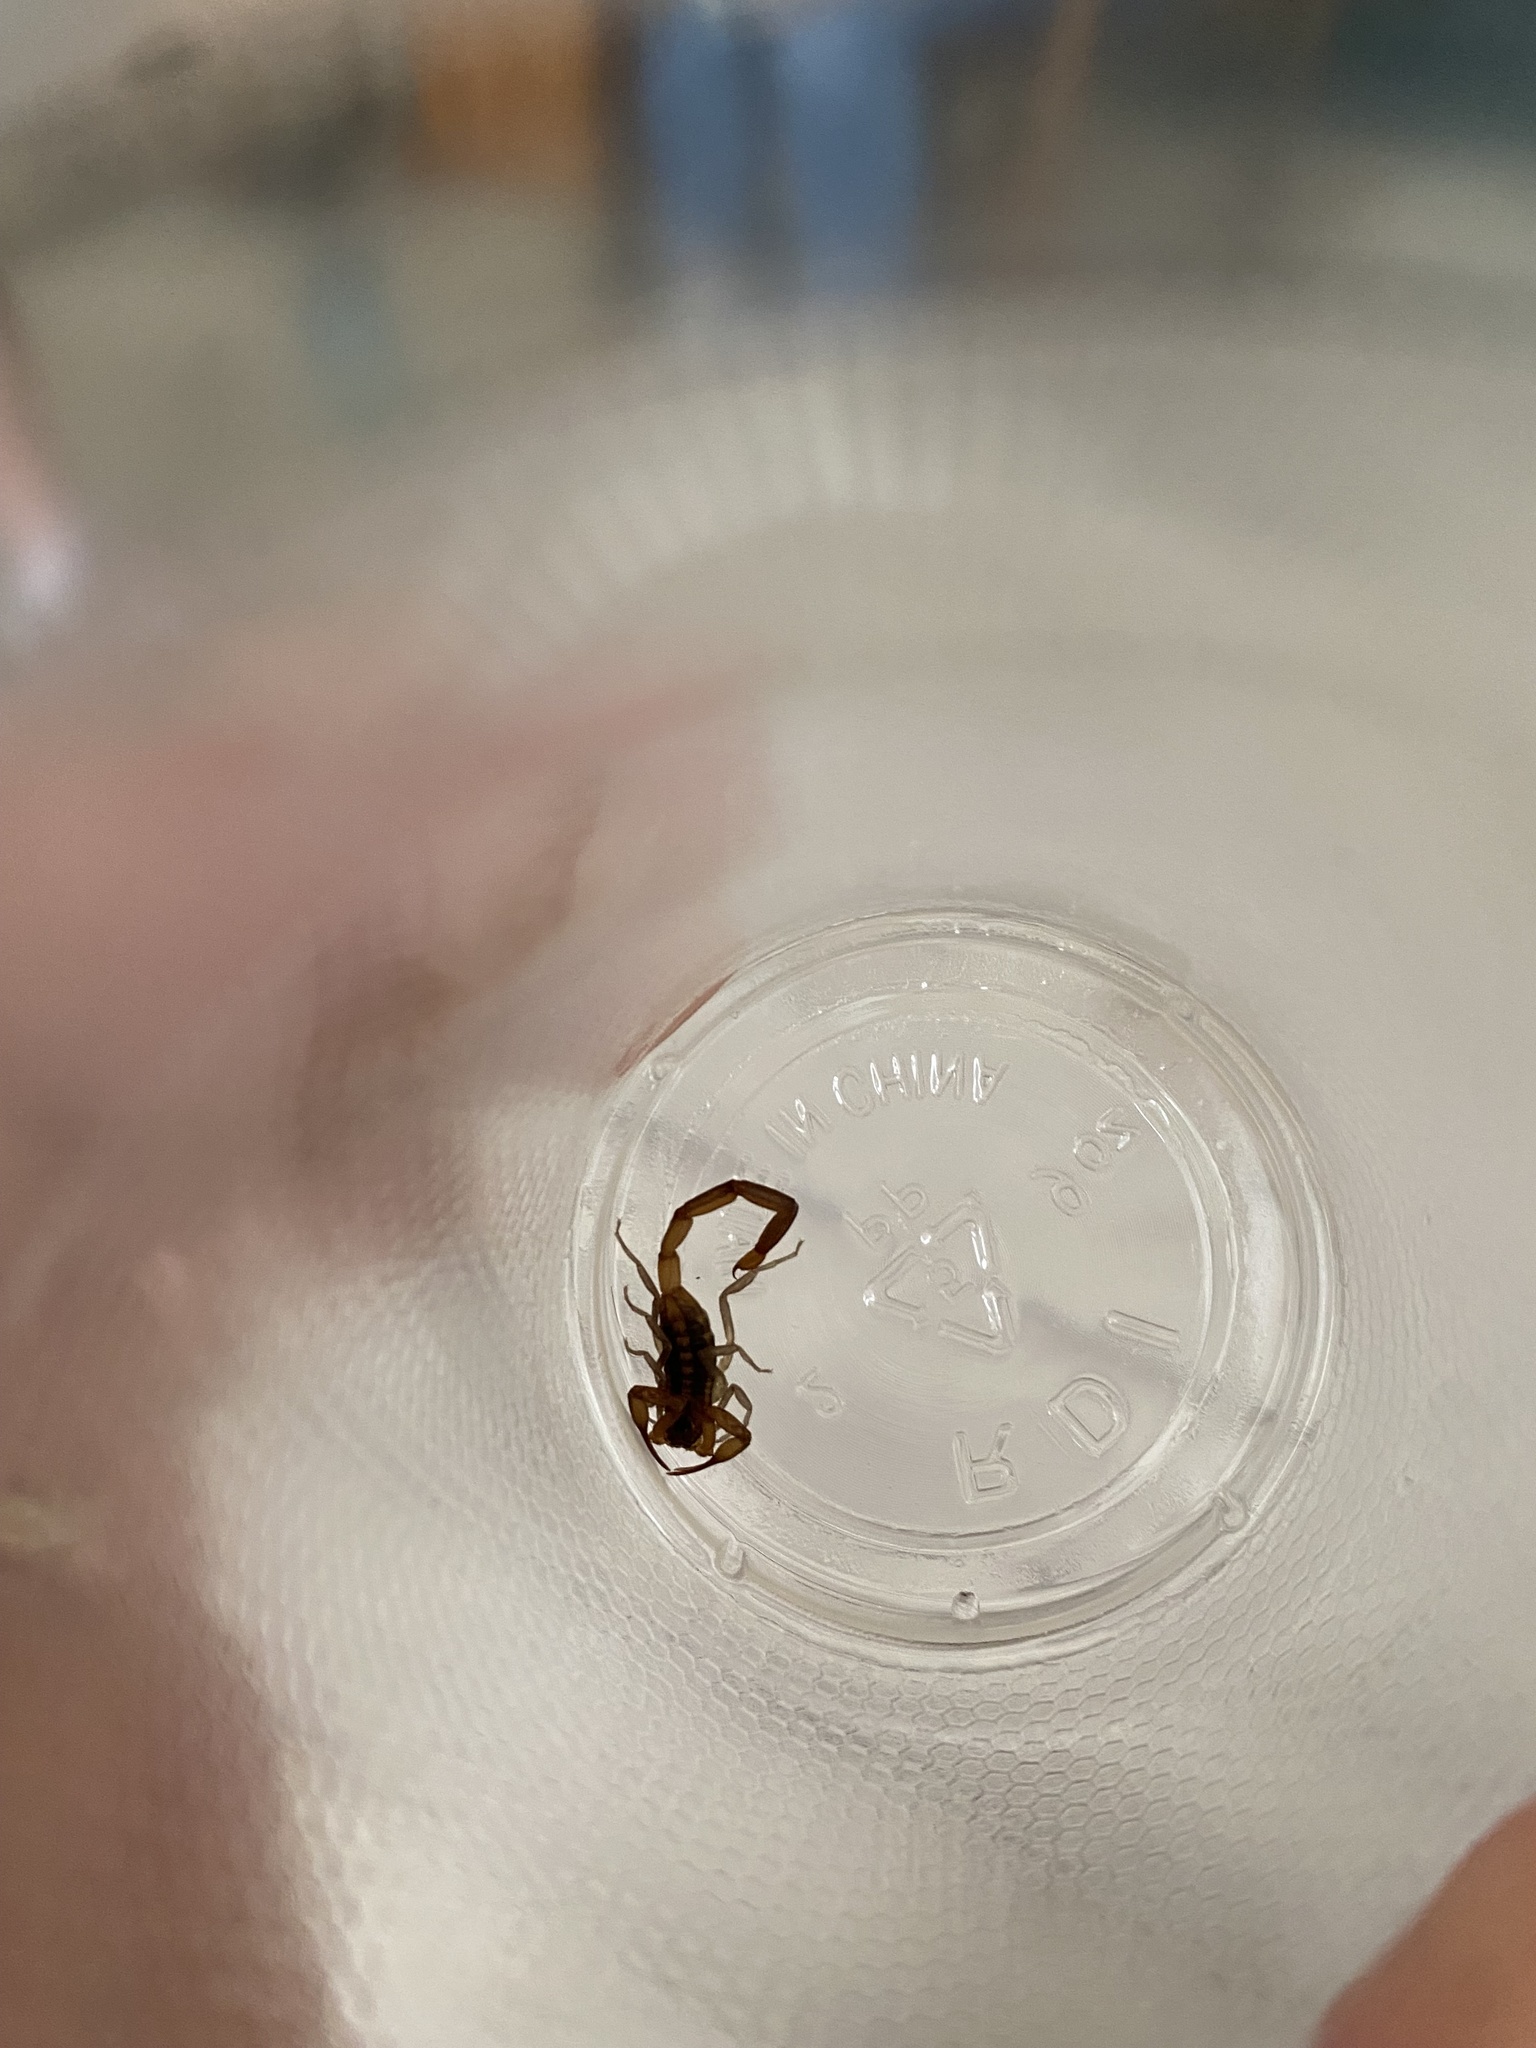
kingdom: Animalia
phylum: Arthropoda
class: Arachnida
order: Scorpiones
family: Buthidae
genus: Centruroides
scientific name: Centruroides hentzi
